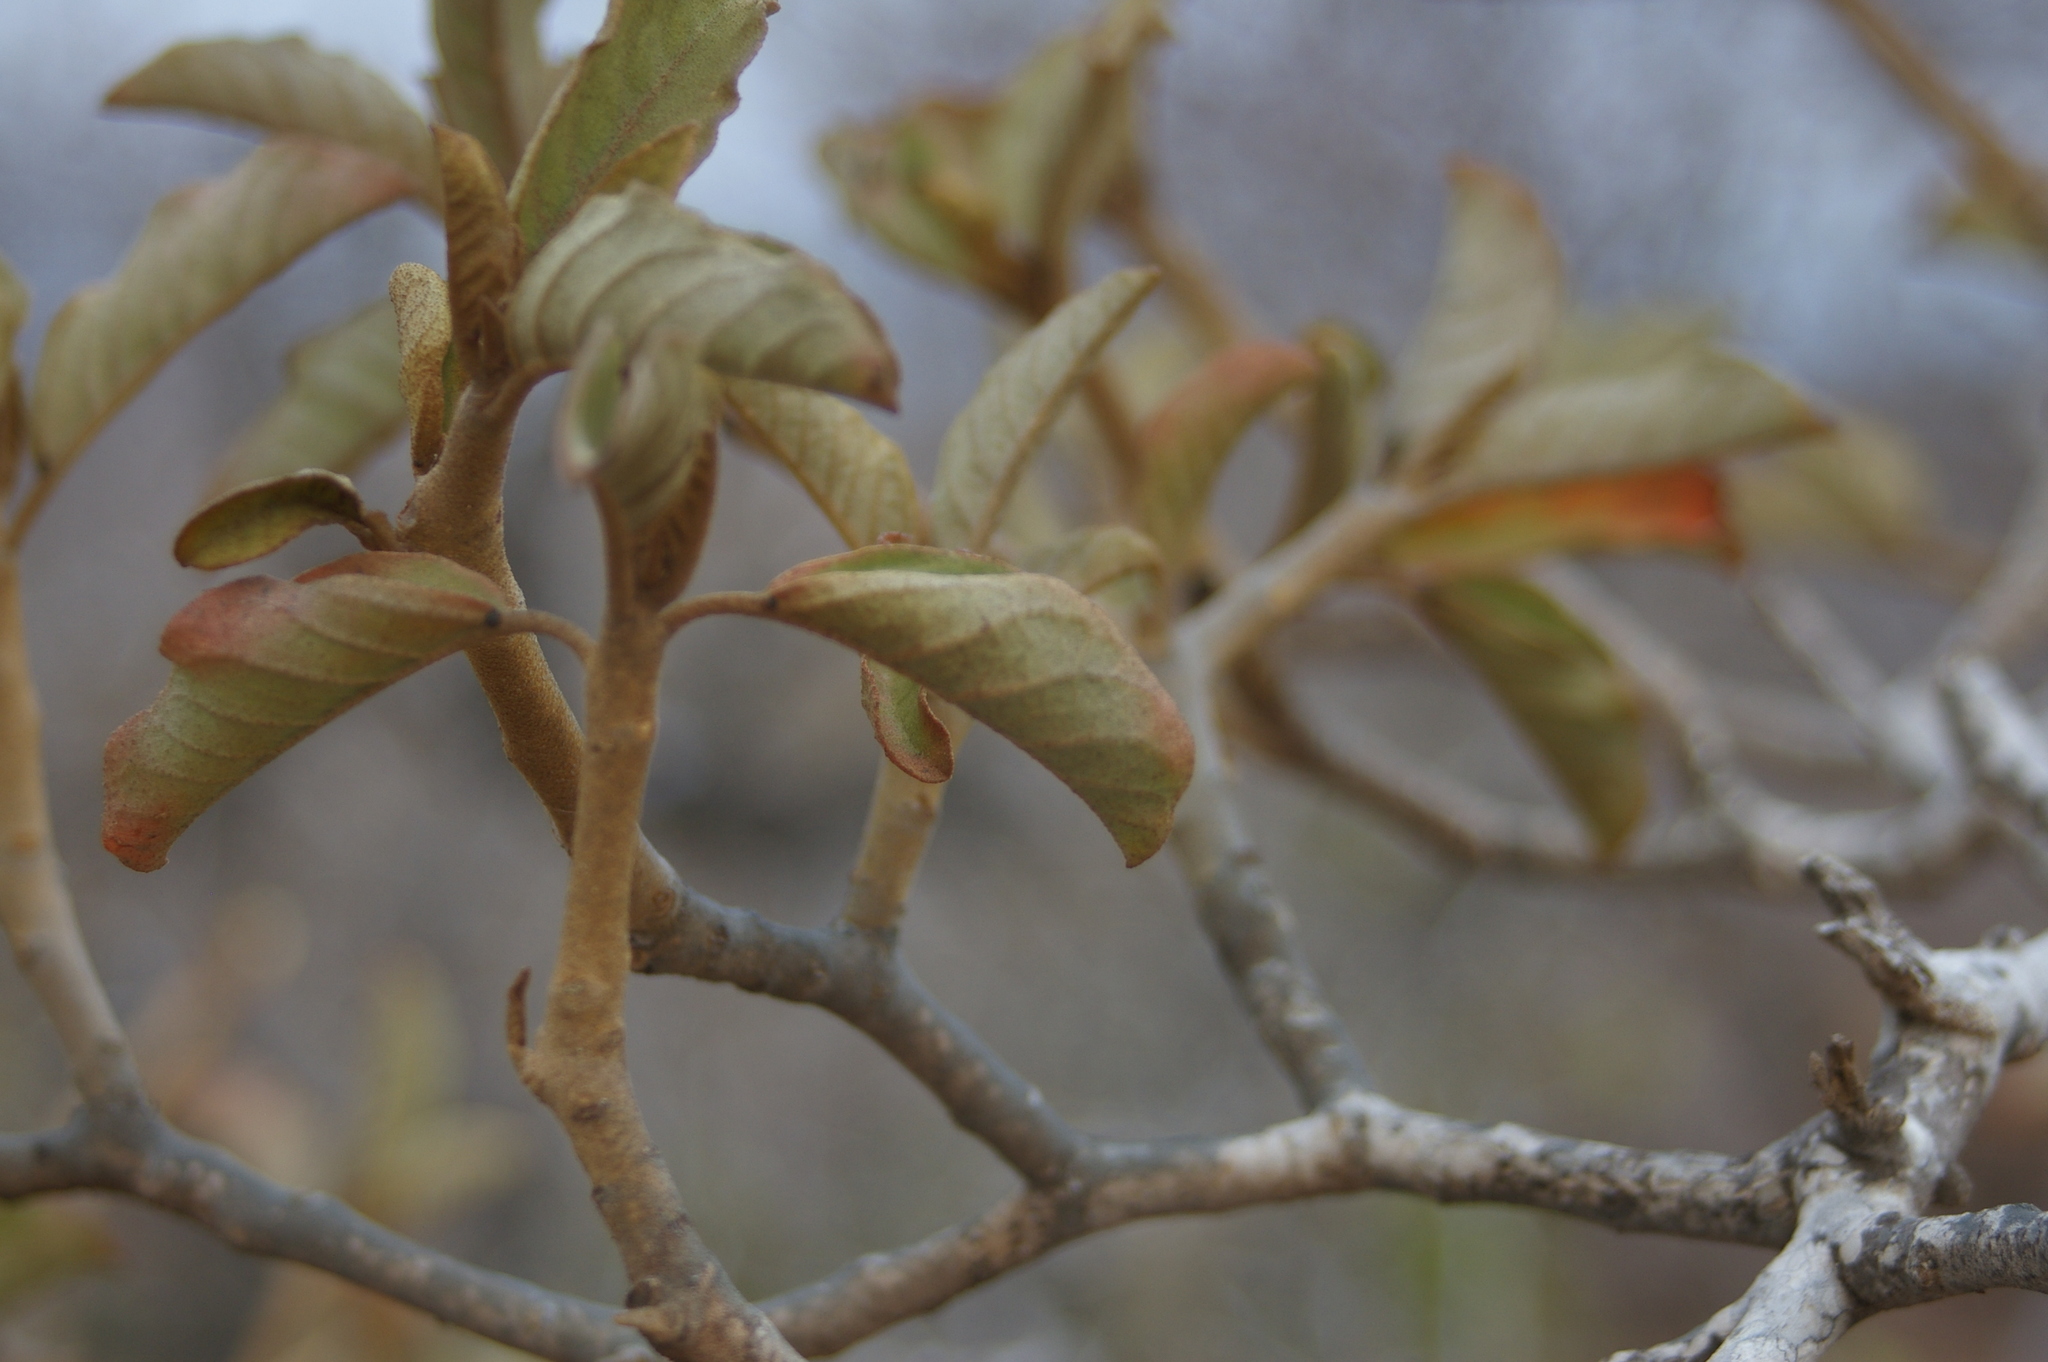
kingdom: Plantae
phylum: Tracheophyta
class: Magnoliopsida
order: Malpighiales
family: Euphorbiaceae
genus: Croton
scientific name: Croton scouleri
